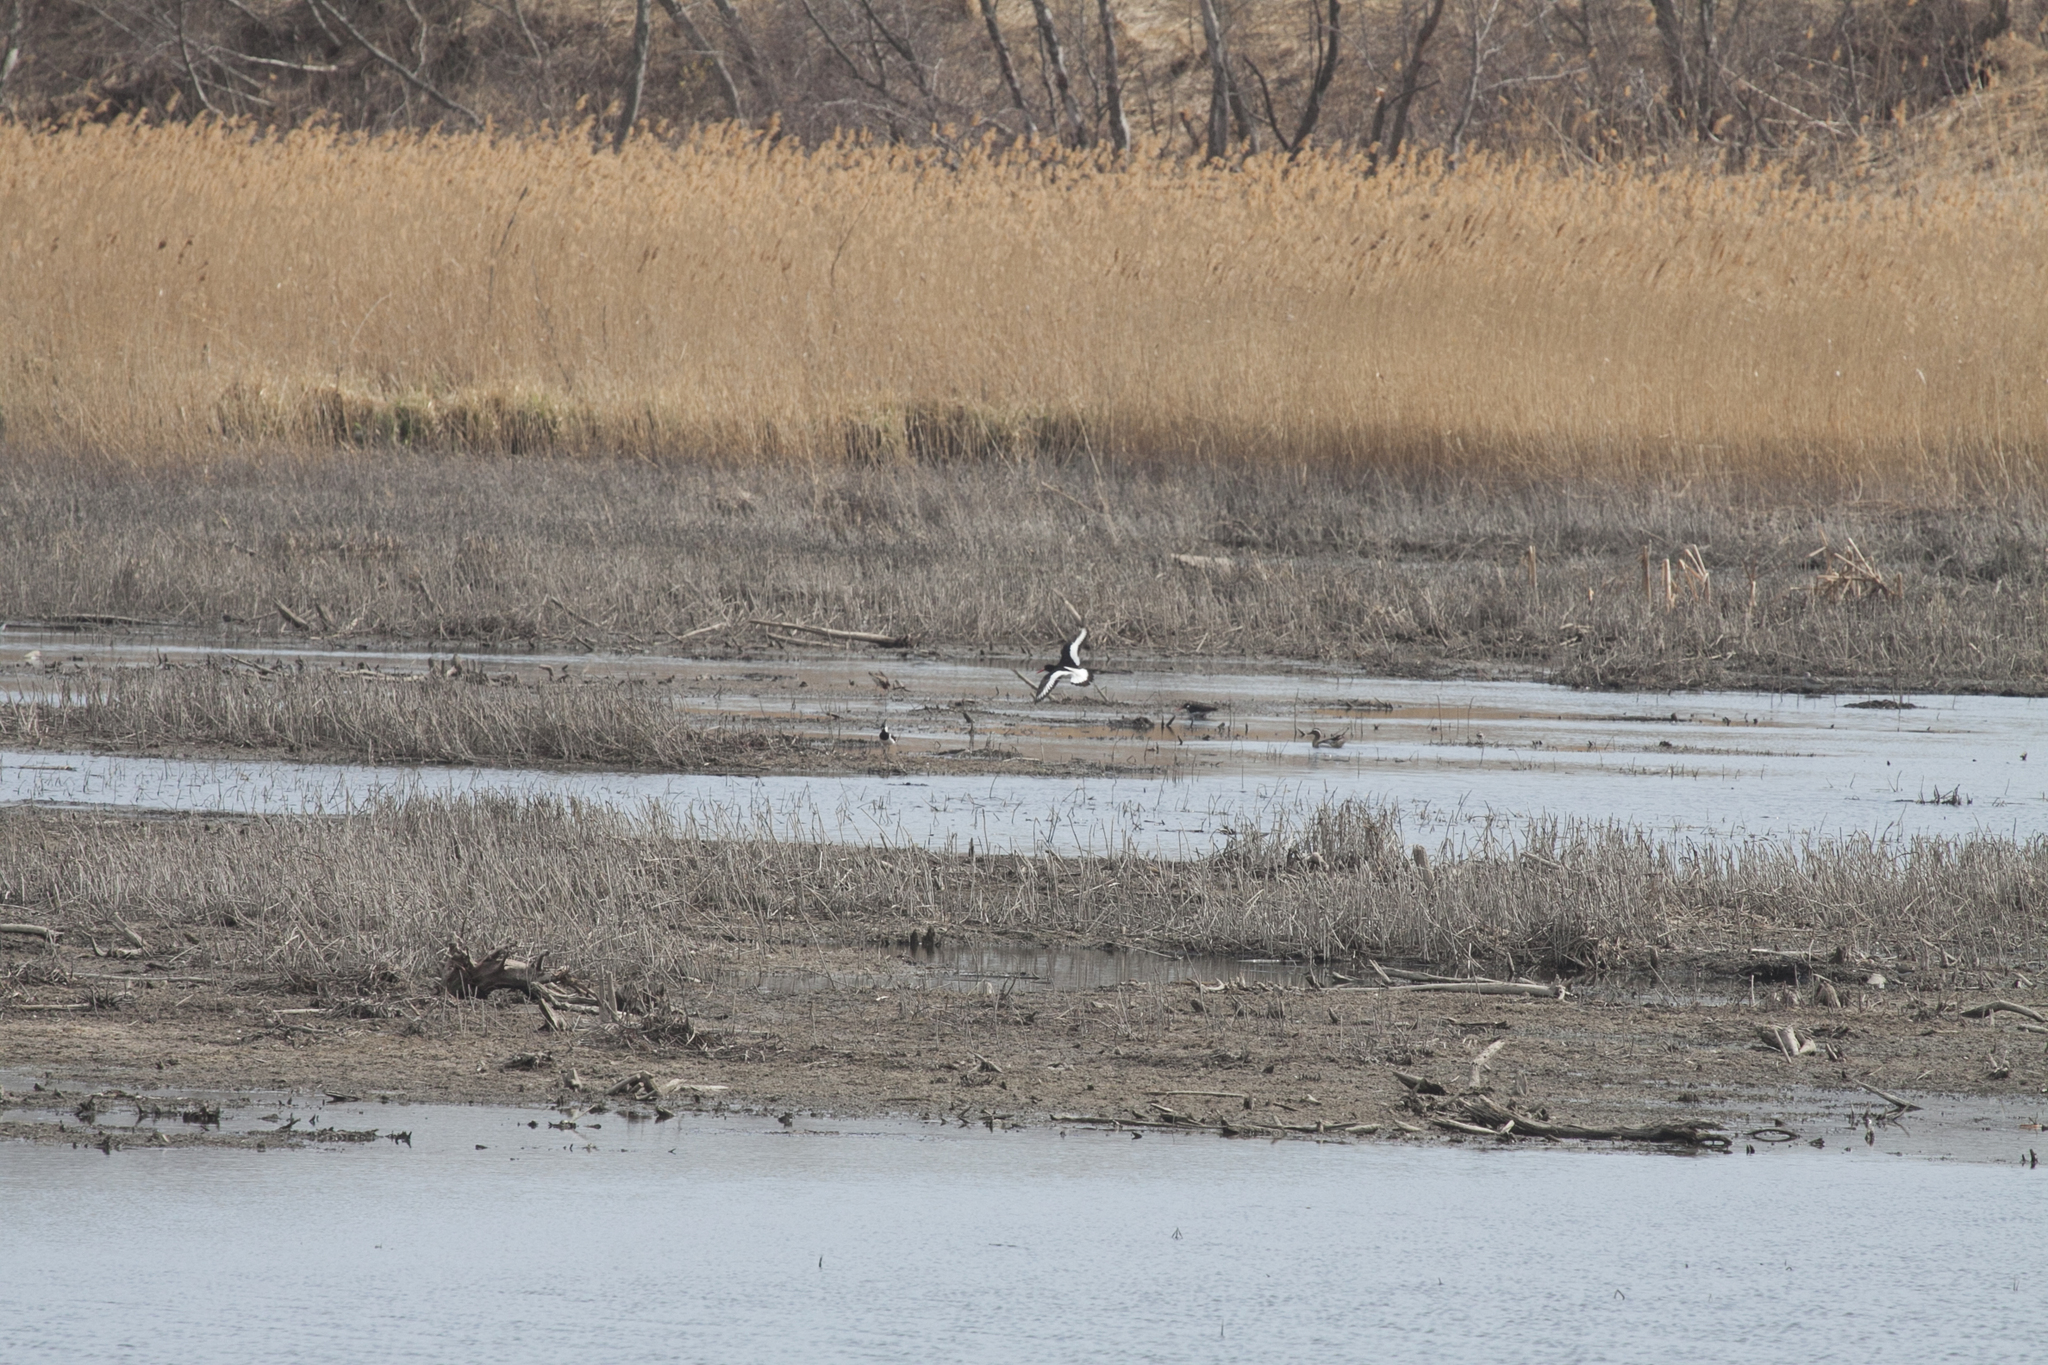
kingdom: Animalia
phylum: Chordata
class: Aves
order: Charadriiformes
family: Haematopodidae
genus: Haematopus
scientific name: Haematopus ostralegus
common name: Eurasian oystercatcher
